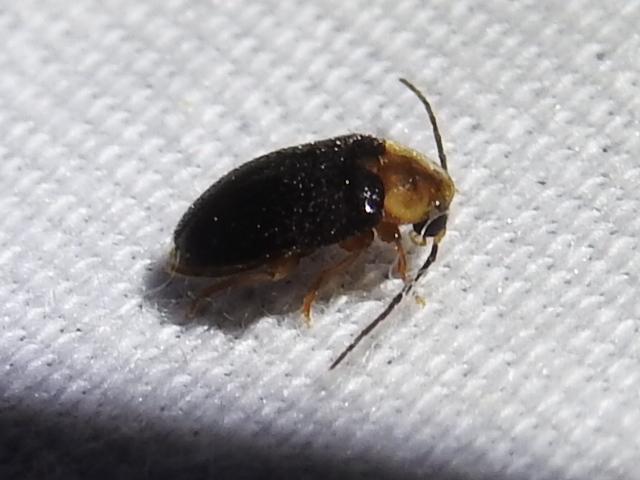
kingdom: Animalia
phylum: Arthropoda
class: Insecta
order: Coleoptera
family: Scirtidae
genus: Sacodes
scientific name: Sacodes pulchella
